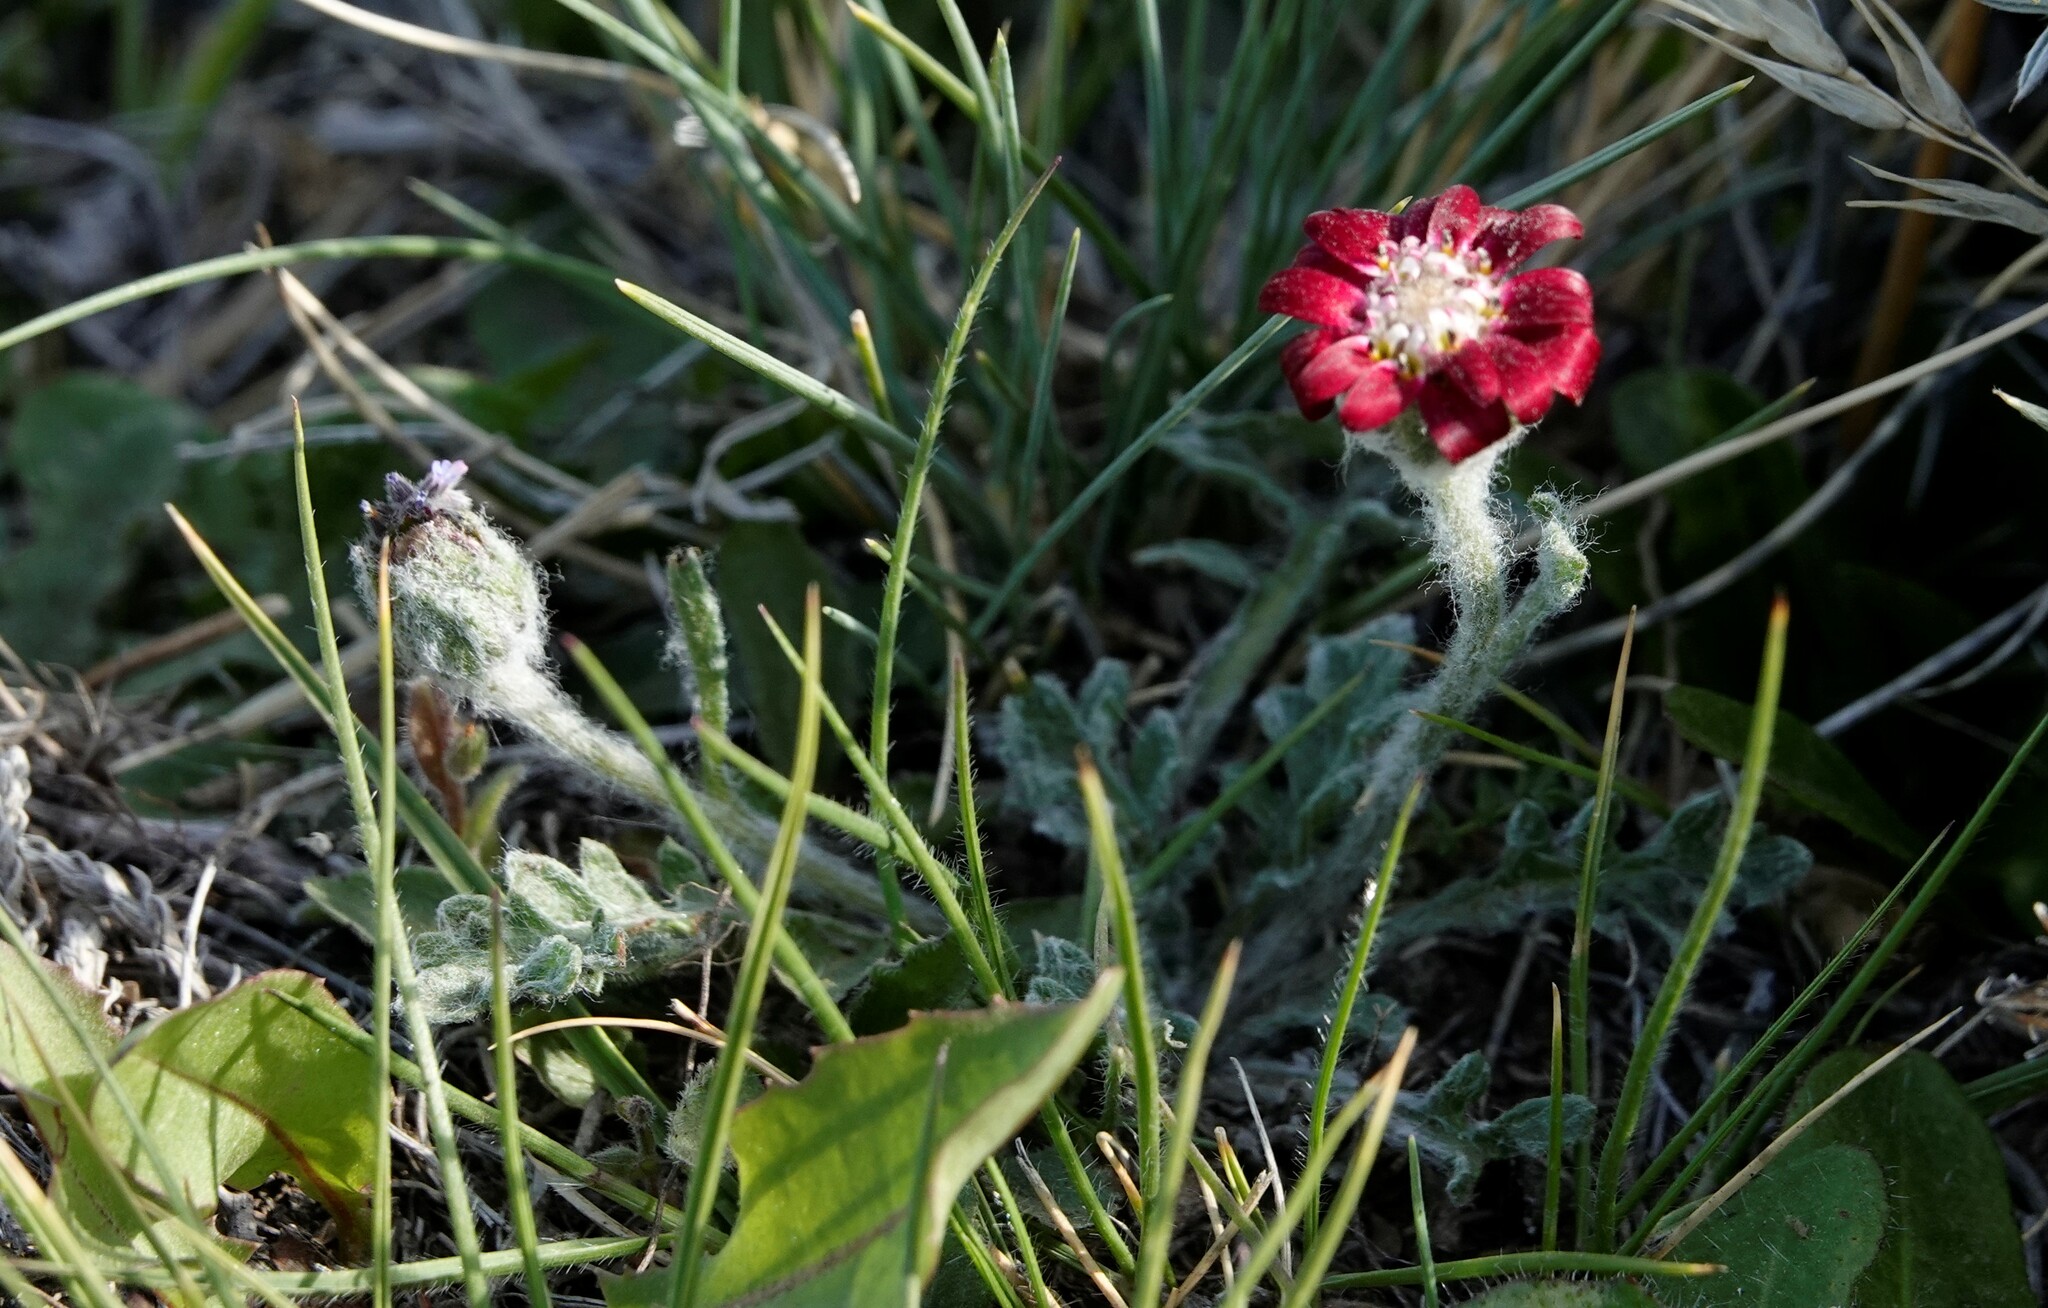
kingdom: Plantae
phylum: Tracheophyta
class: Magnoliopsida
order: Asterales
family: Asteraceae
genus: Leucheria
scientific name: Leucheria purpurea
